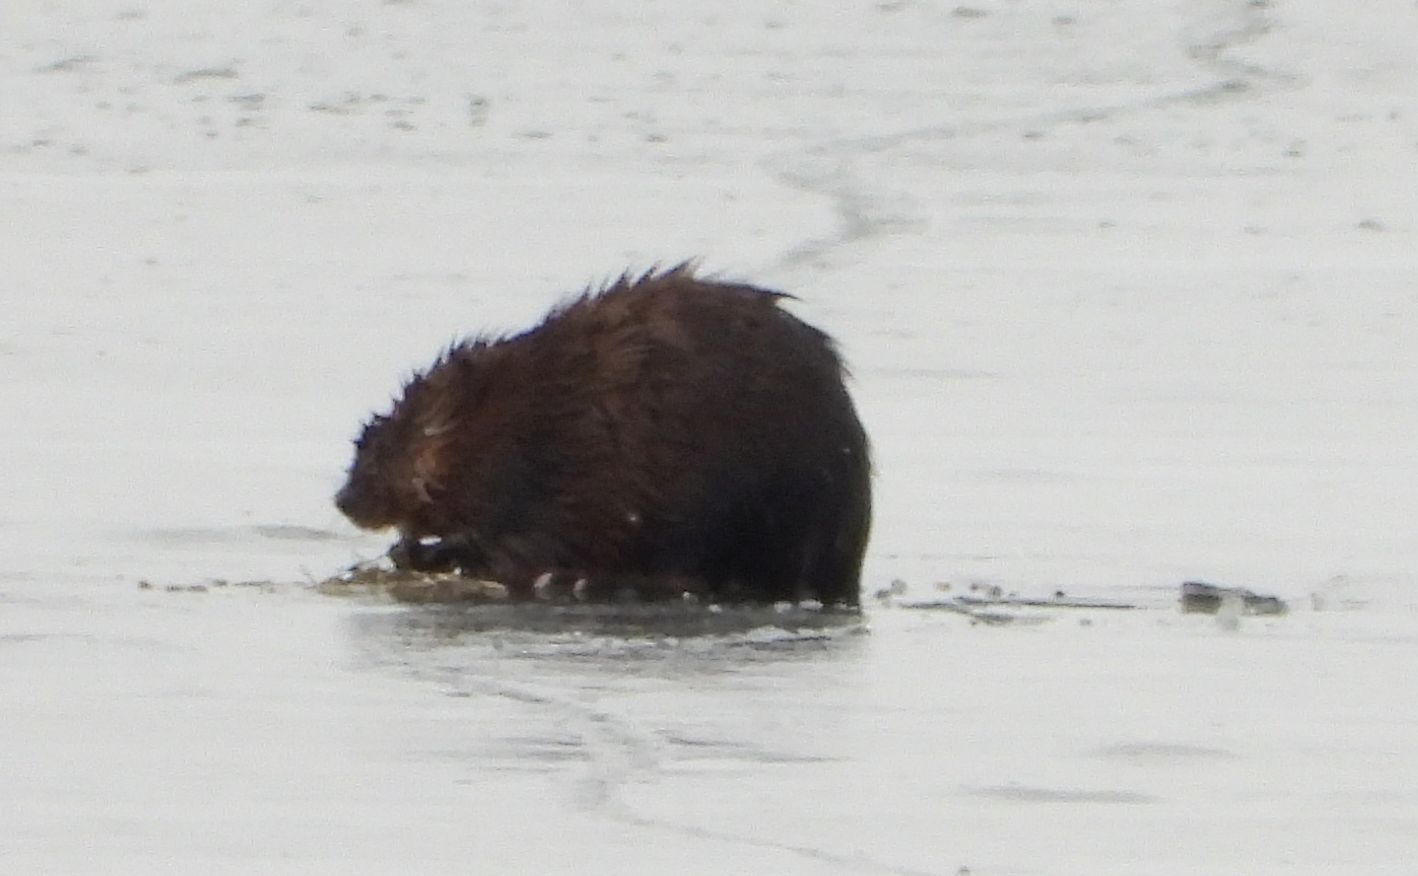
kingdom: Animalia
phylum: Chordata
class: Mammalia
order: Rodentia
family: Cricetidae
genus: Ondatra
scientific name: Ondatra zibethicus
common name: Muskrat
